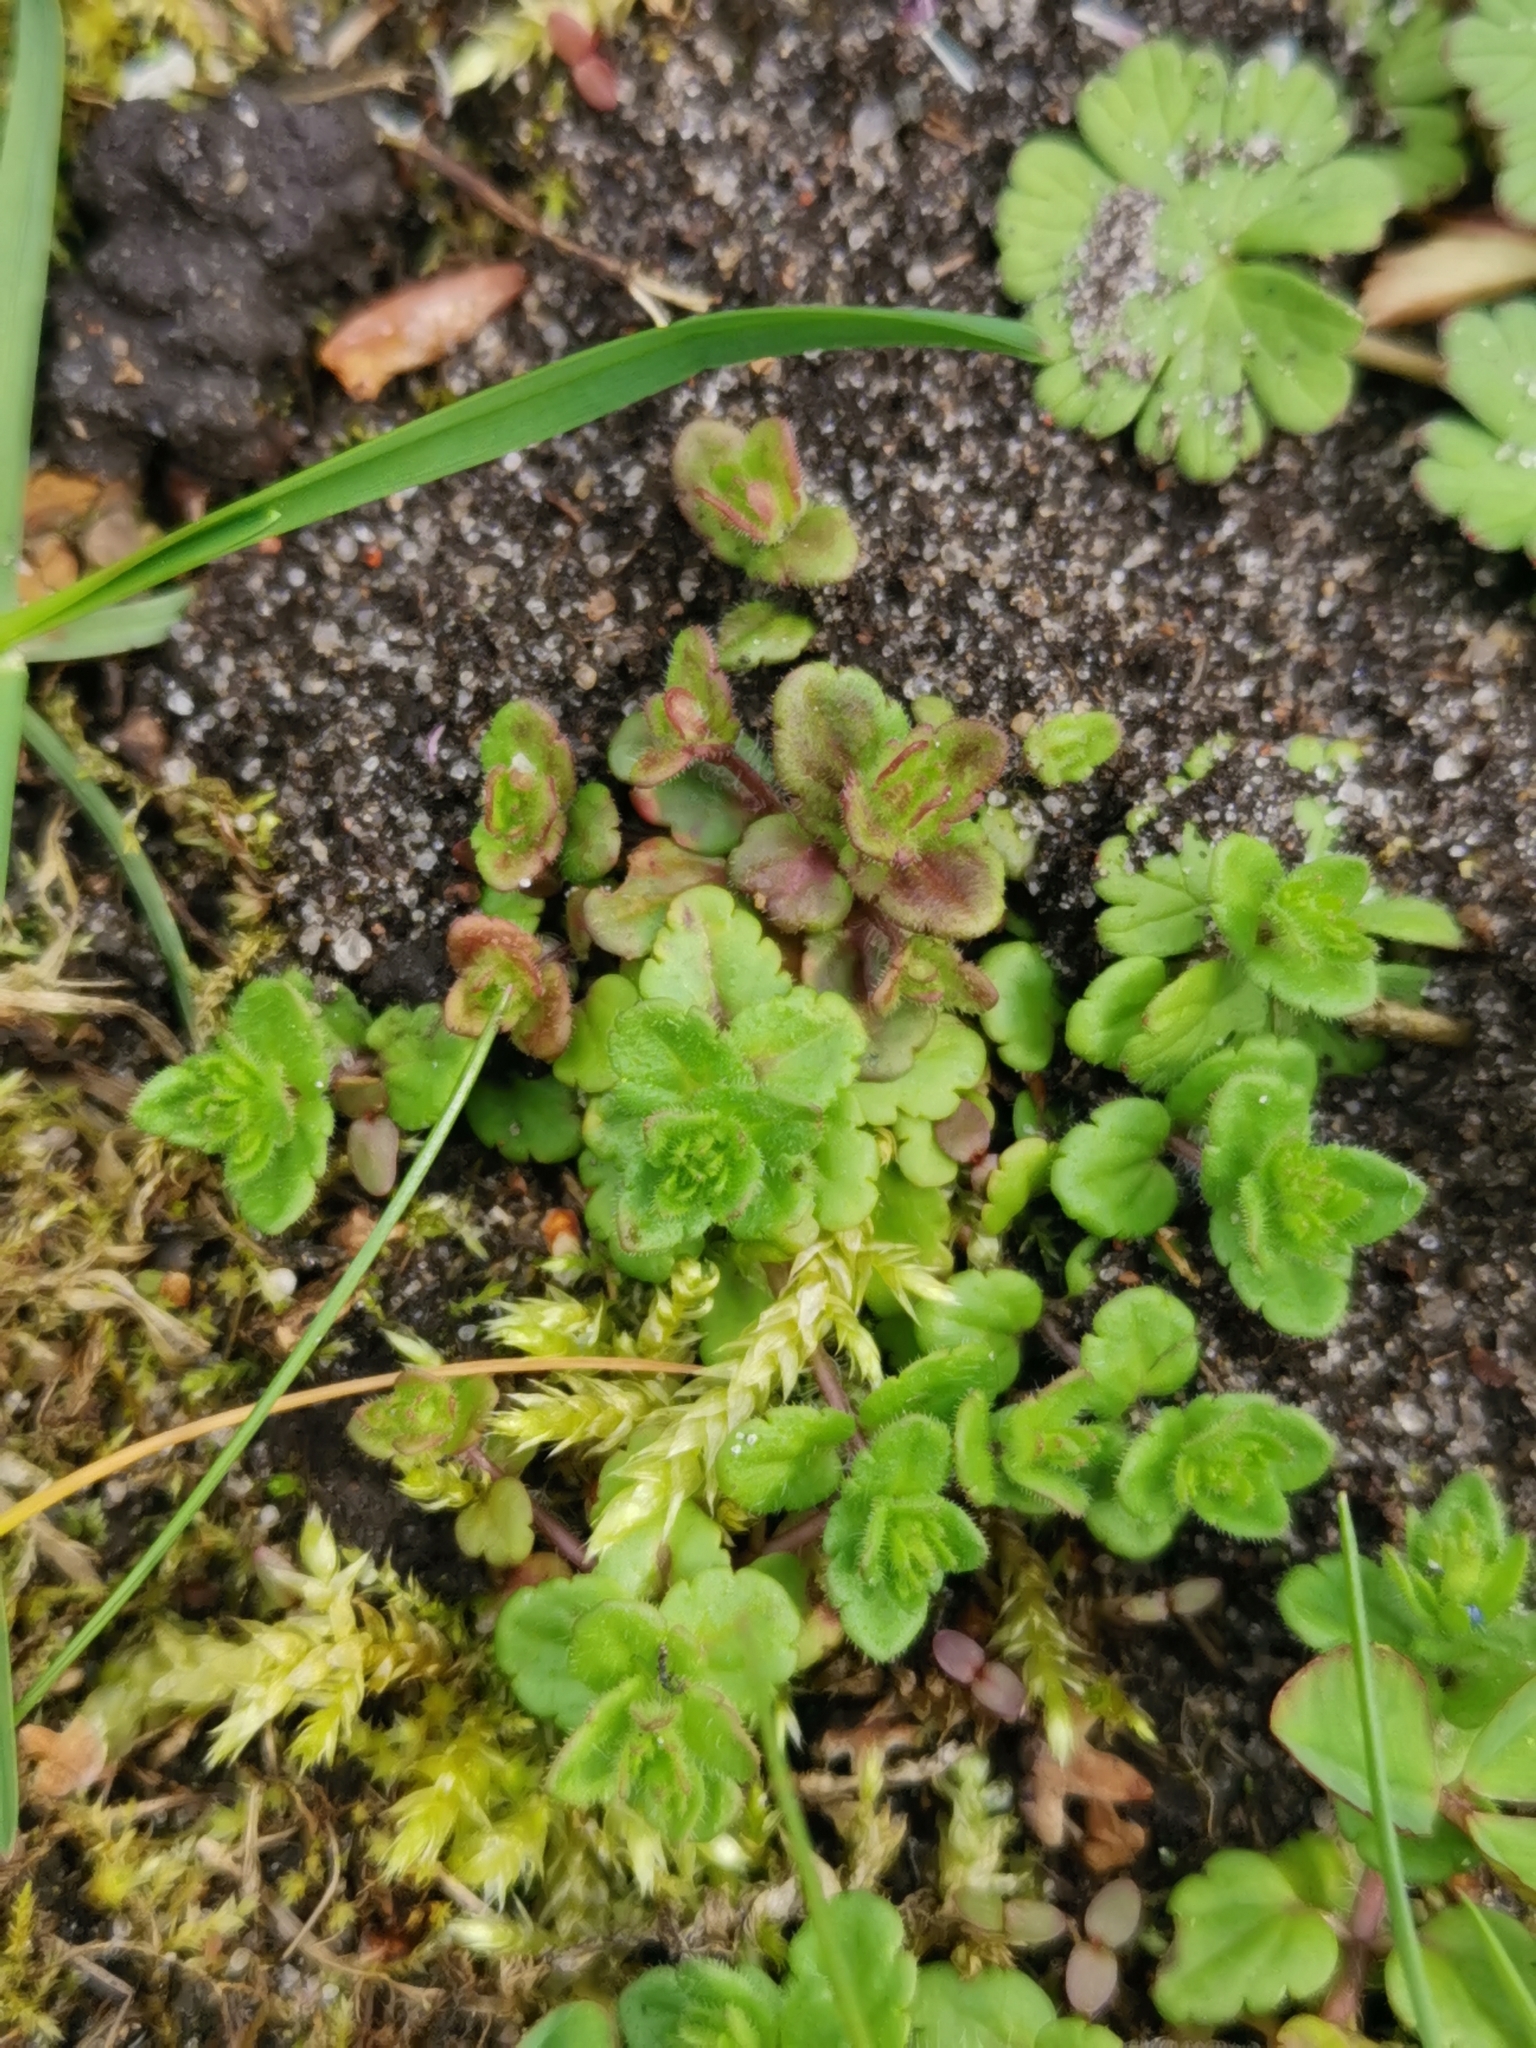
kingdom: Plantae
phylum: Tracheophyta
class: Magnoliopsida
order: Lamiales
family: Plantaginaceae
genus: Veronica
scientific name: Veronica arvensis
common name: Corn speedwell
